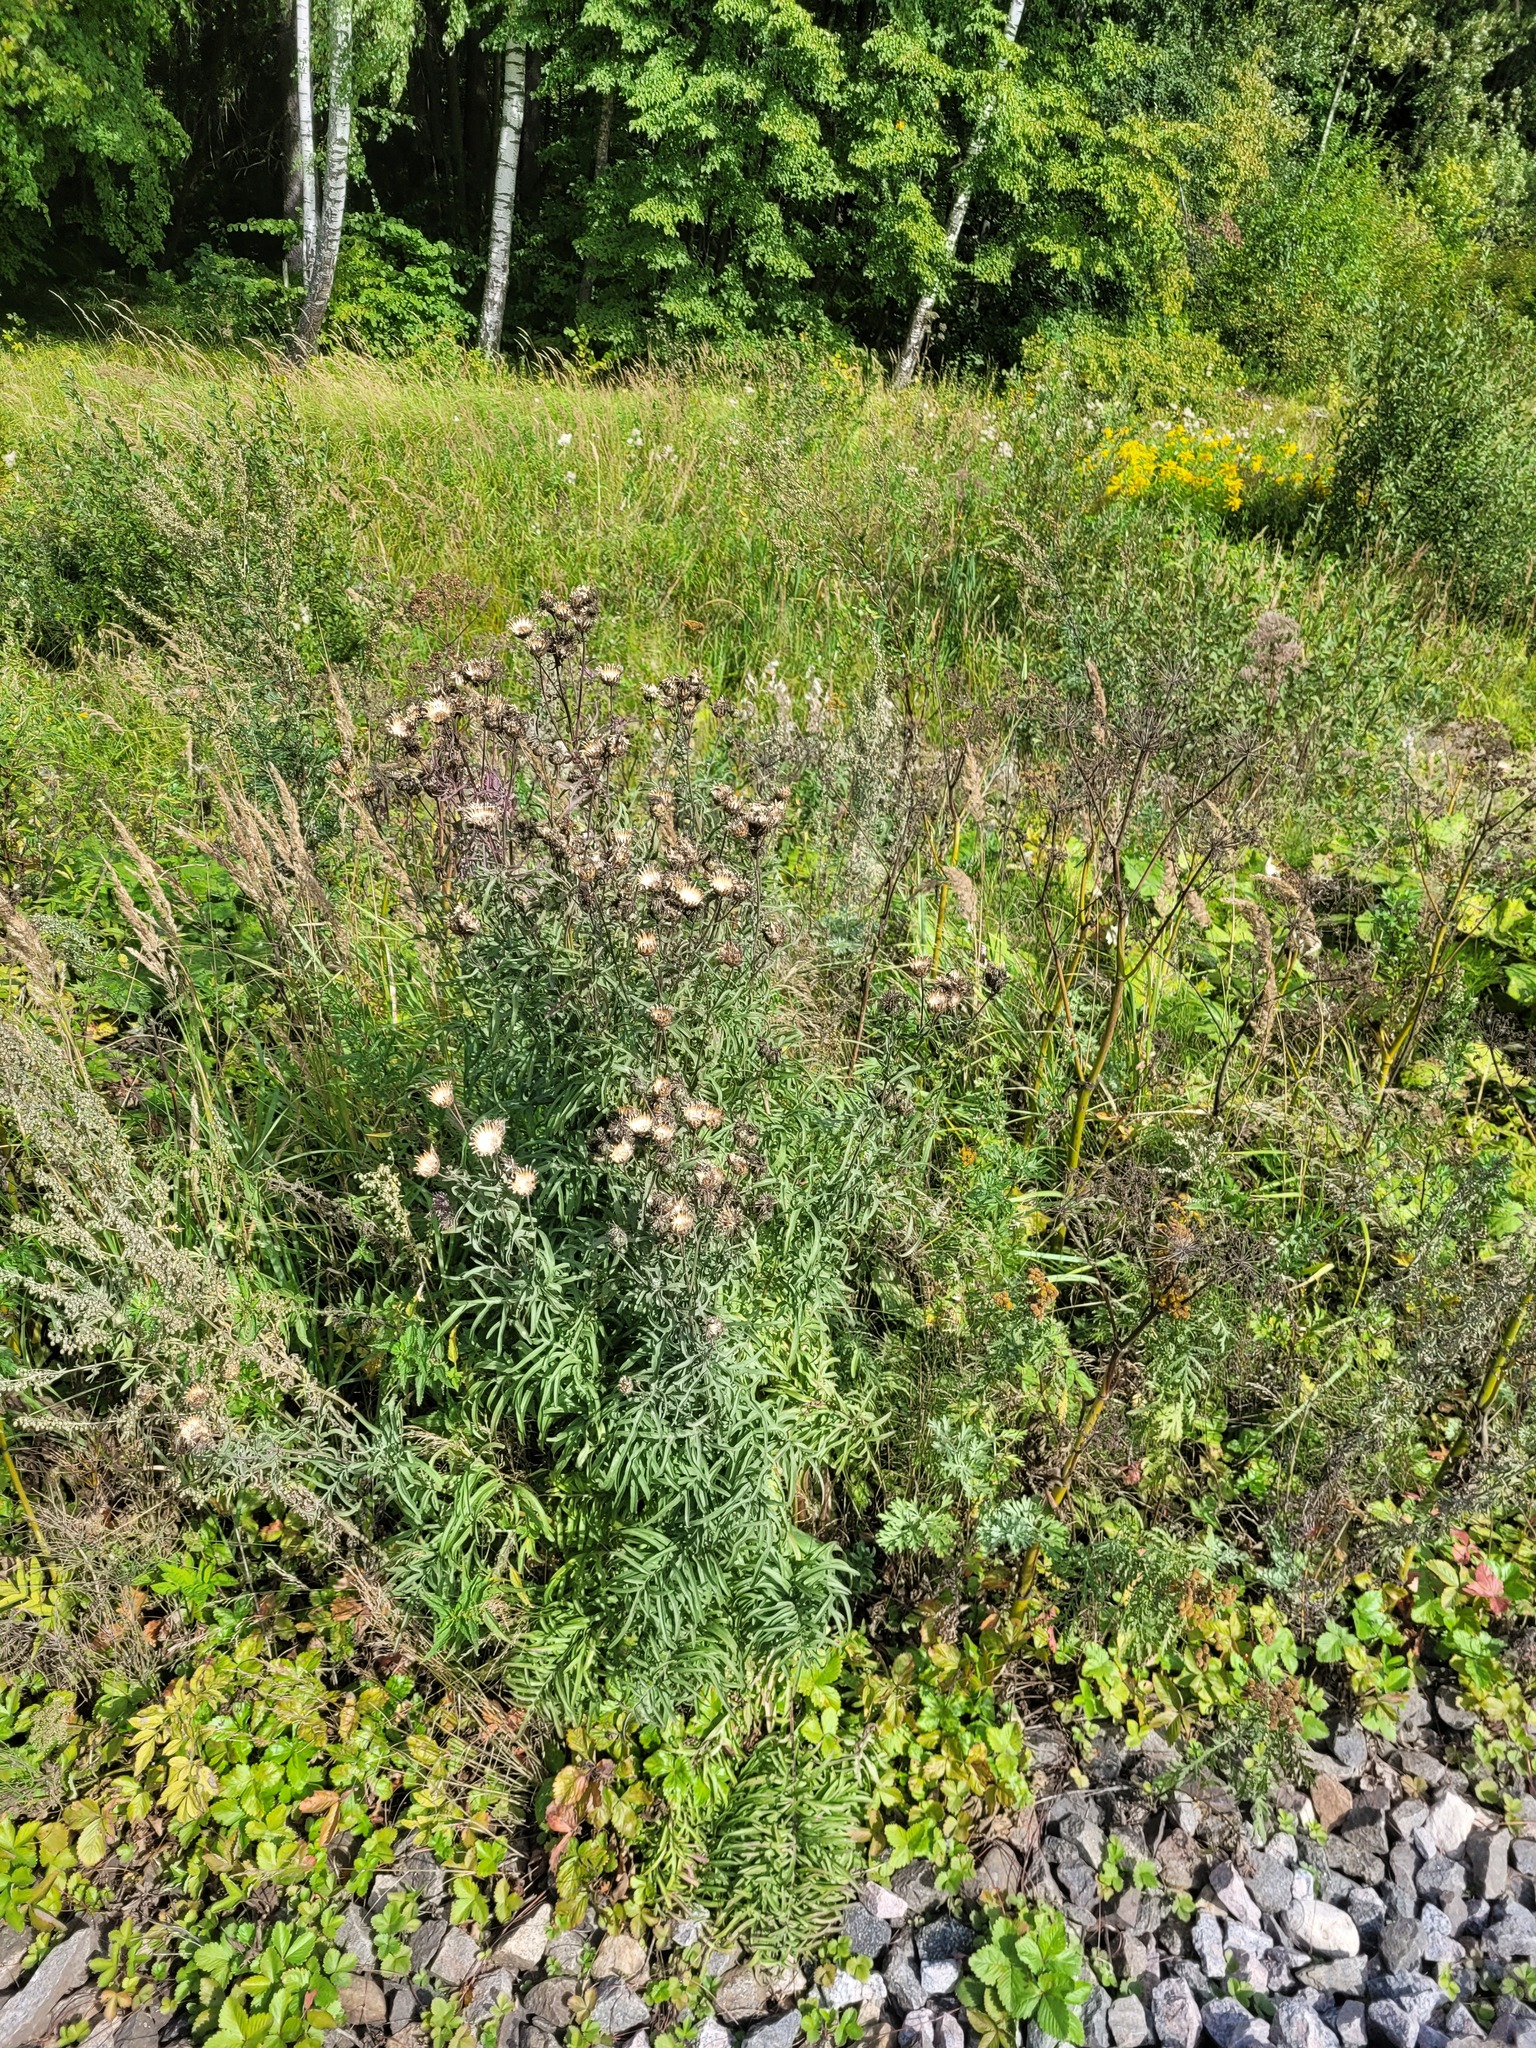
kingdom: Plantae
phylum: Tracheophyta
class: Magnoliopsida
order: Asterales
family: Asteraceae
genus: Centaurea
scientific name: Centaurea scabiosa
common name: Greater knapweed
